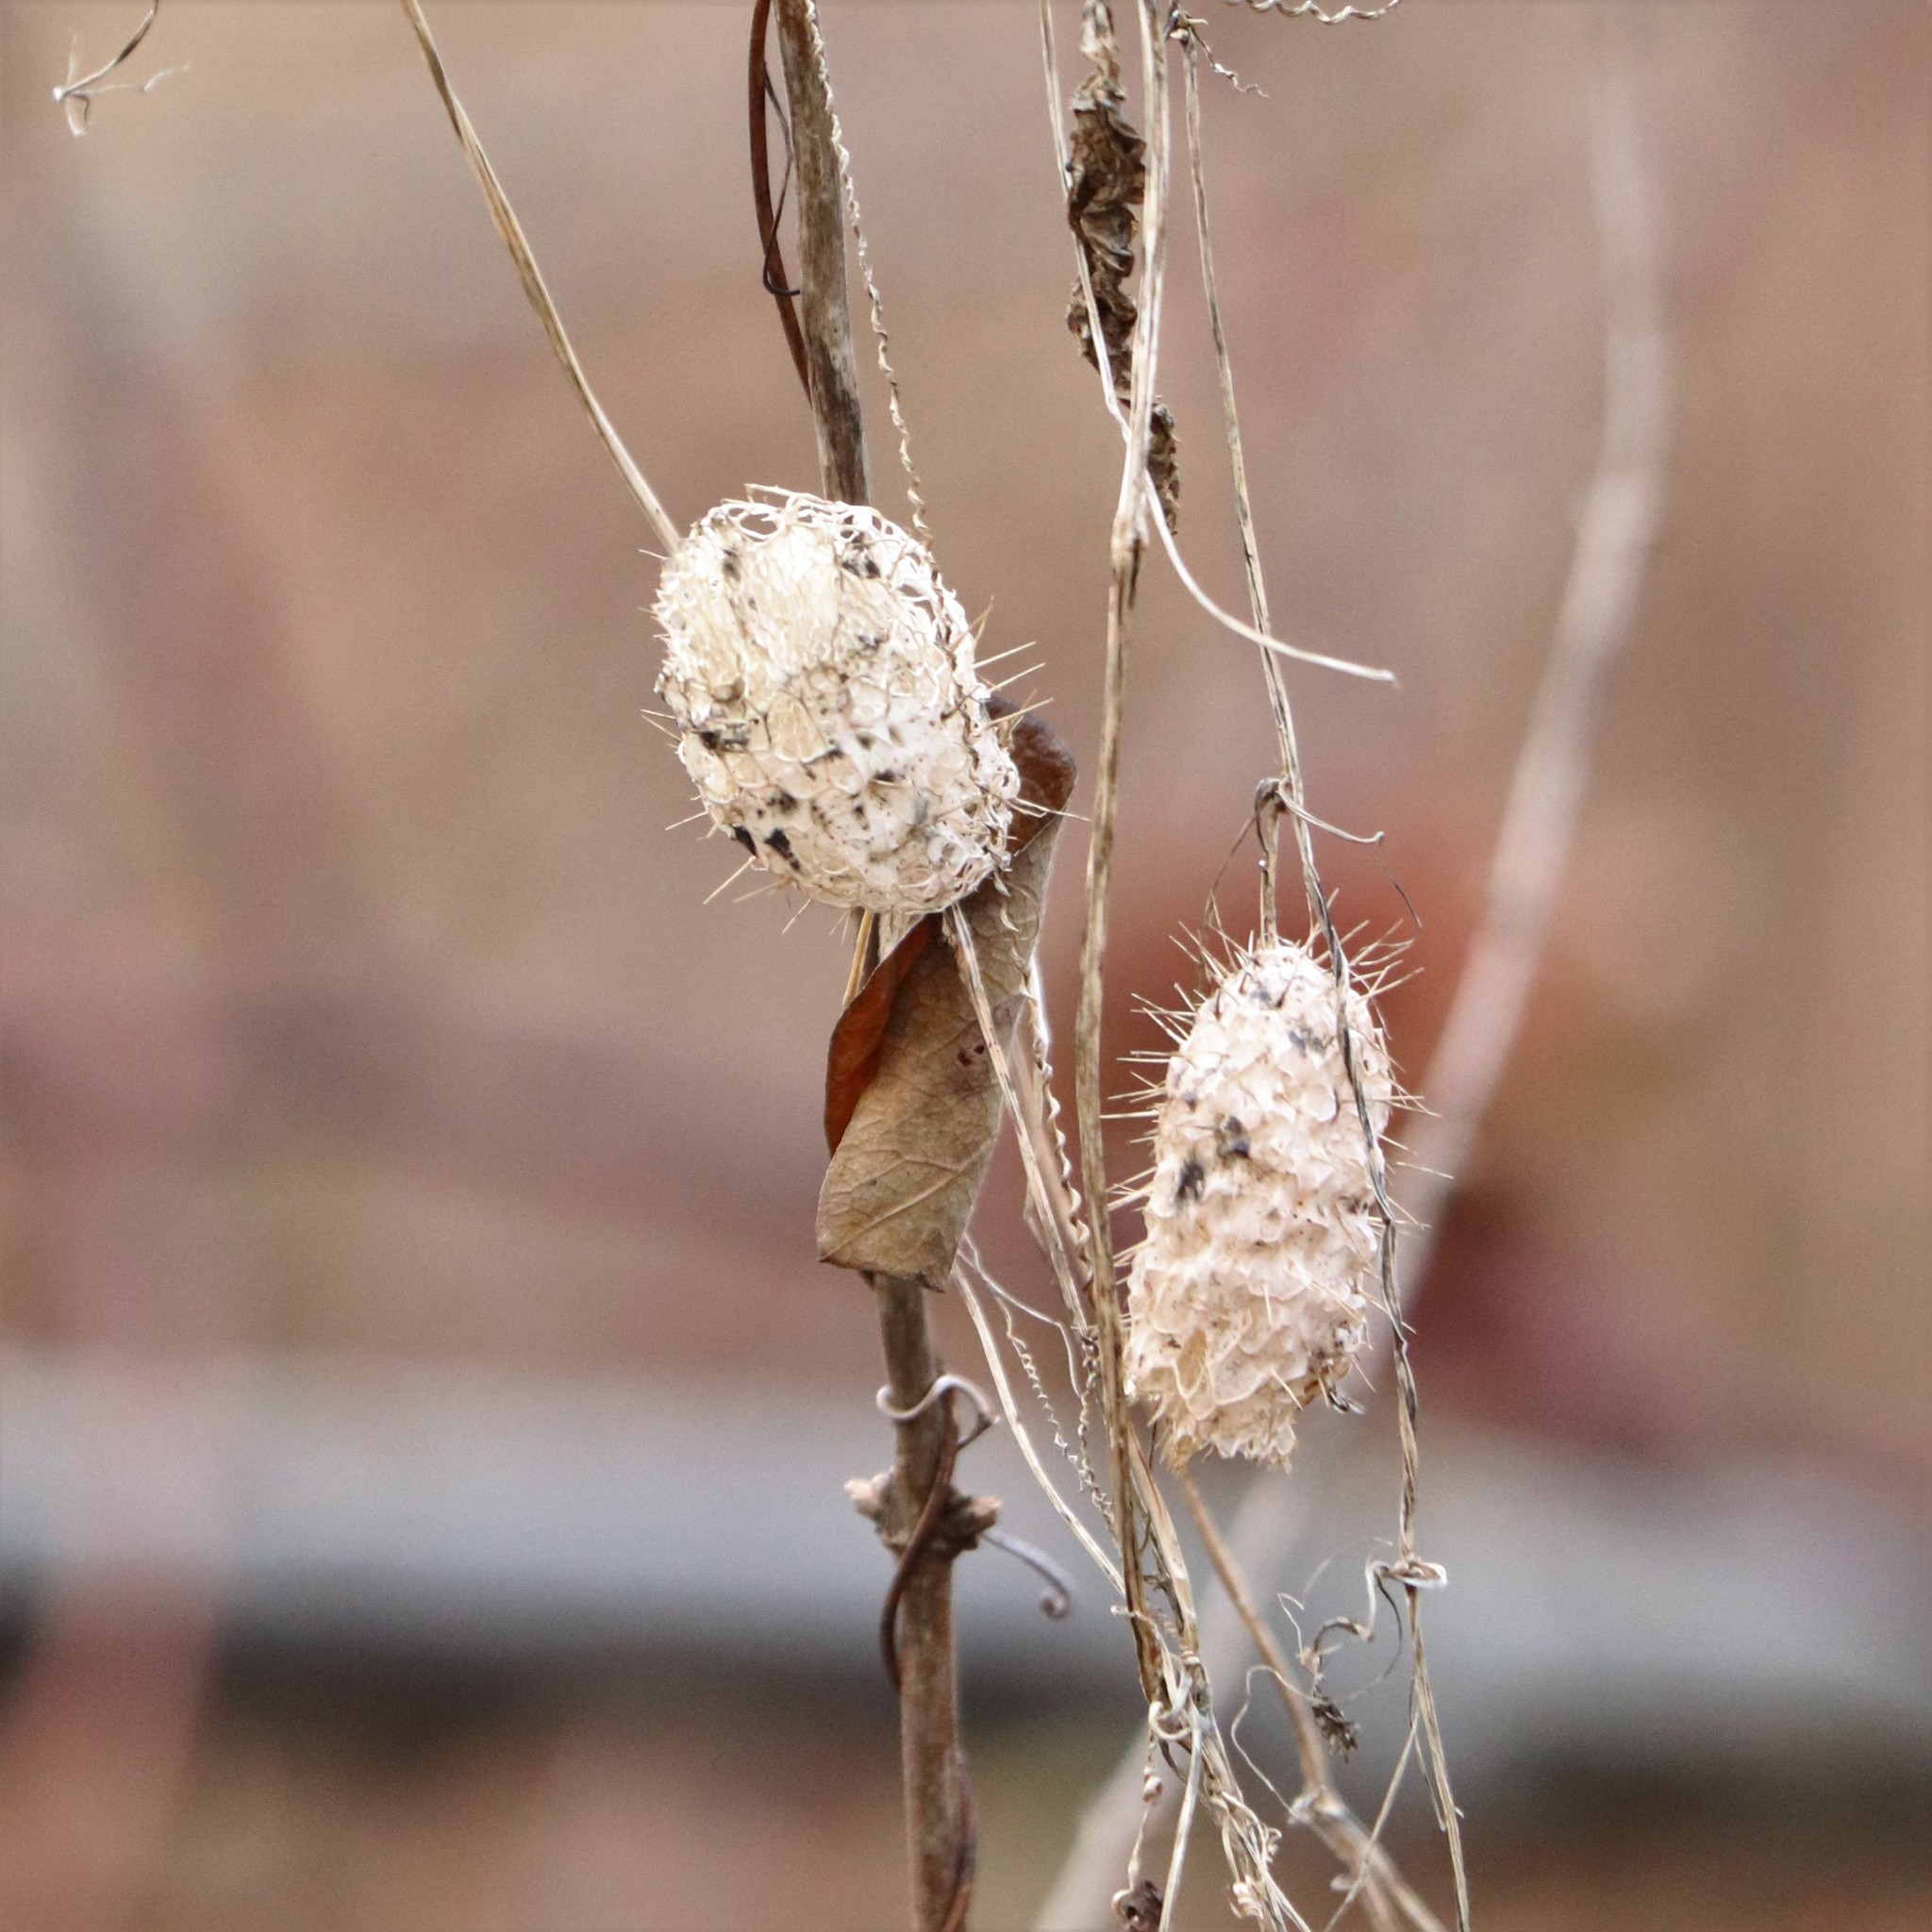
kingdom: Plantae
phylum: Tracheophyta
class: Magnoliopsida
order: Cucurbitales
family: Cucurbitaceae
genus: Echinocystis
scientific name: Echinocystis lobata
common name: Wild cucumber
